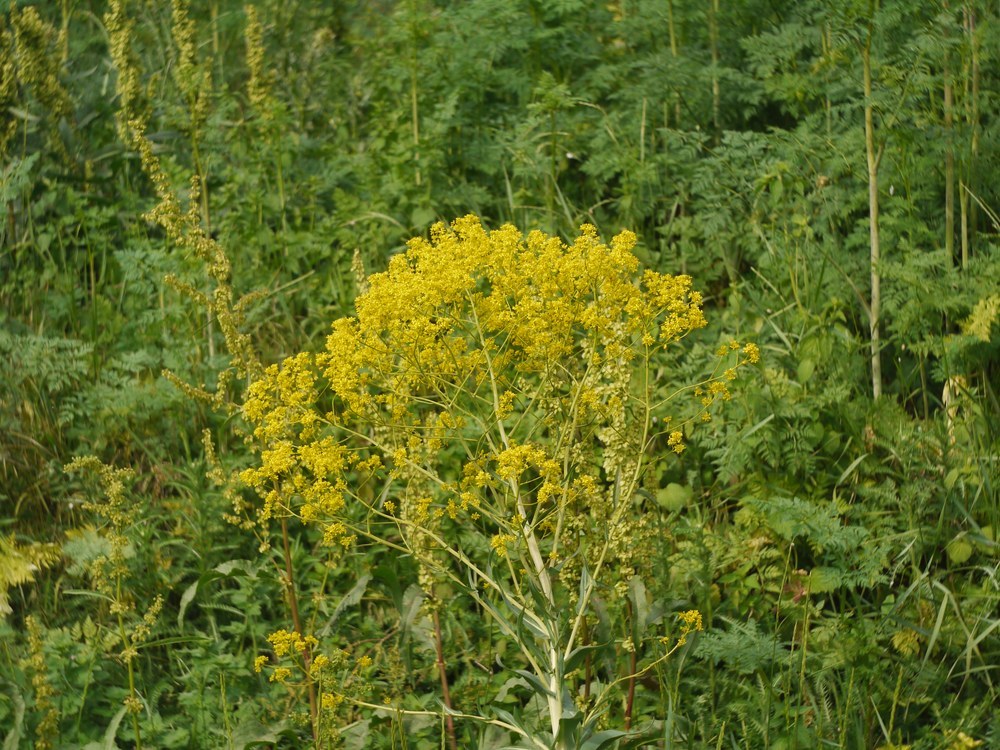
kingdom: Plantae
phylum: Tracheophyta
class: Magnoliopsida
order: Brassicales
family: Brassicaceae
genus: Isatis
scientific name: Isatis tinctoria
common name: Woad
